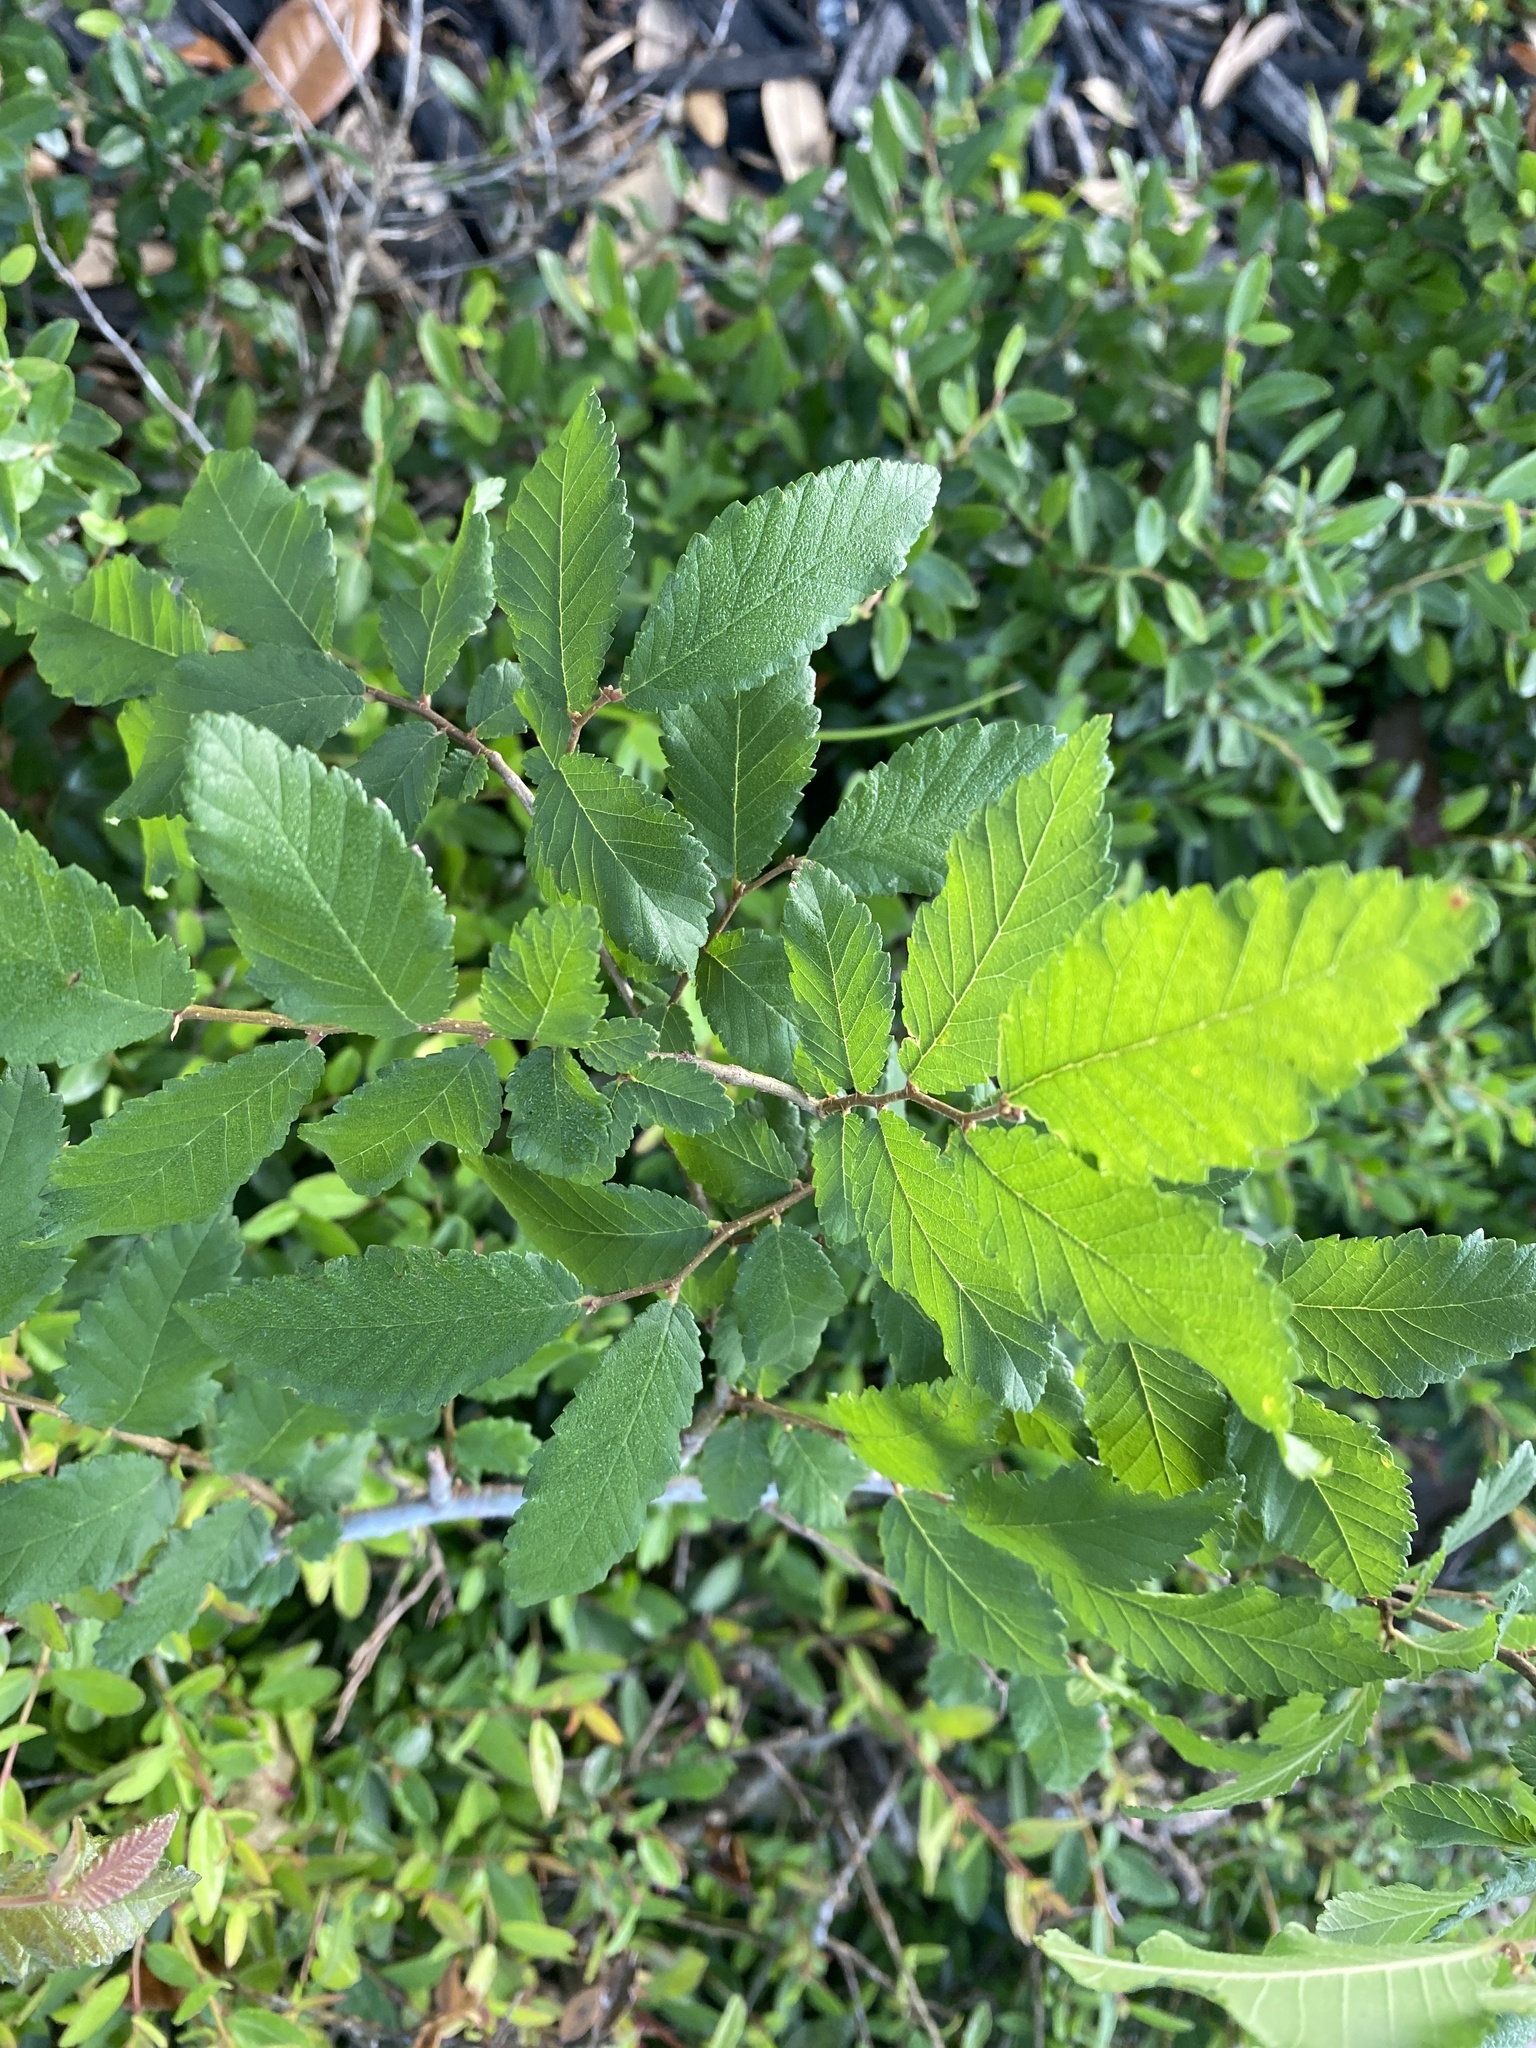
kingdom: Plantae
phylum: Tracheophyta
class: Magnoliopsida
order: Rosales
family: Ulmaceae
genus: Ulmus
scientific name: Ulmus crassifolia
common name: Basket elm
